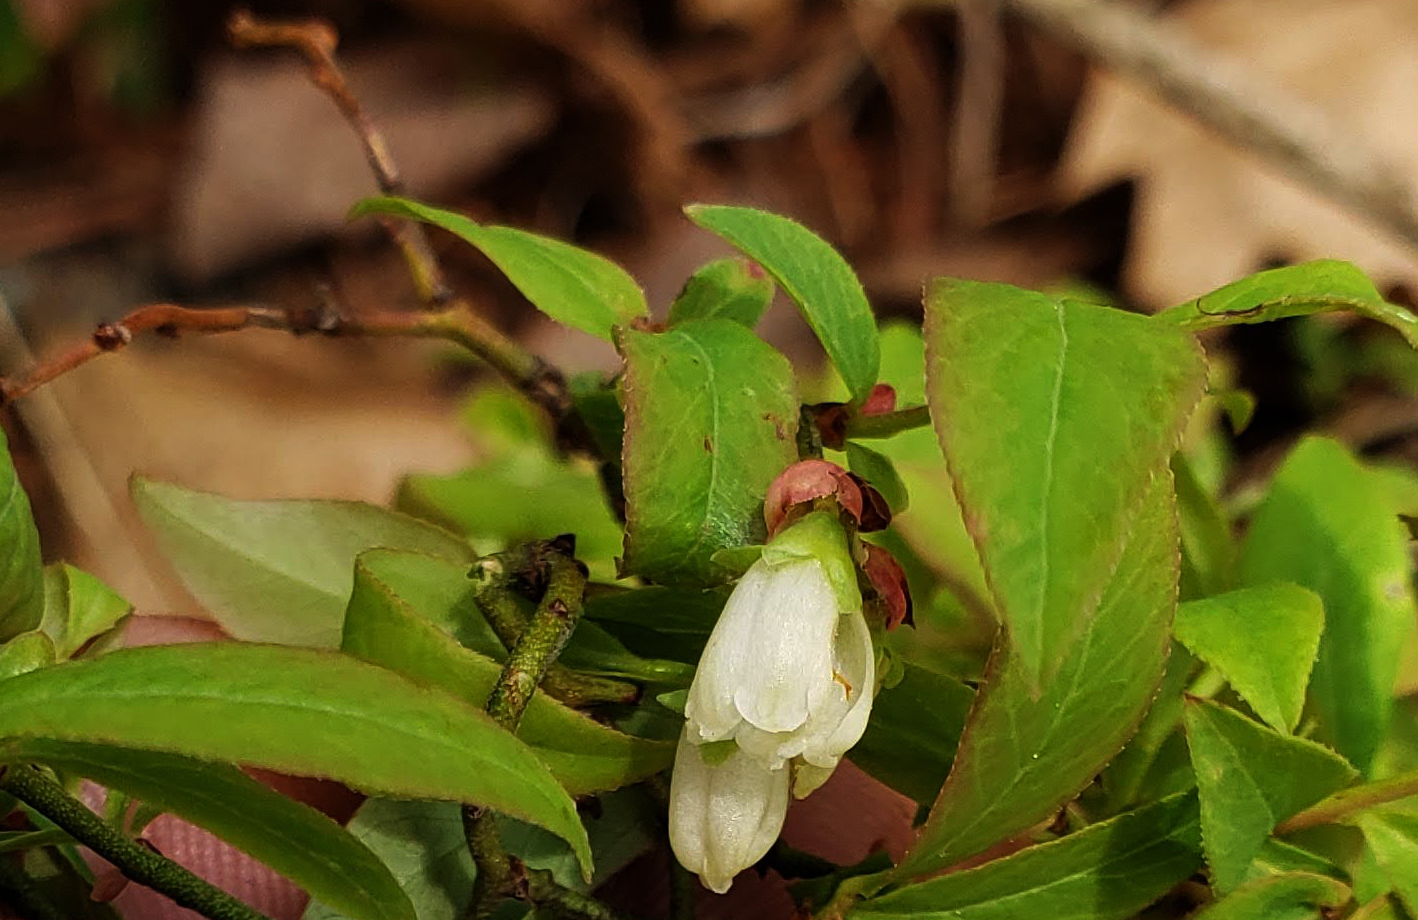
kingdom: Plantae
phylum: Tracheophyta
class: Magnoliopsida
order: Ericales
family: Ericaceae
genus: Vaccinium
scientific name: Vaccinium angustifolium
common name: Early lowbush blueberry
